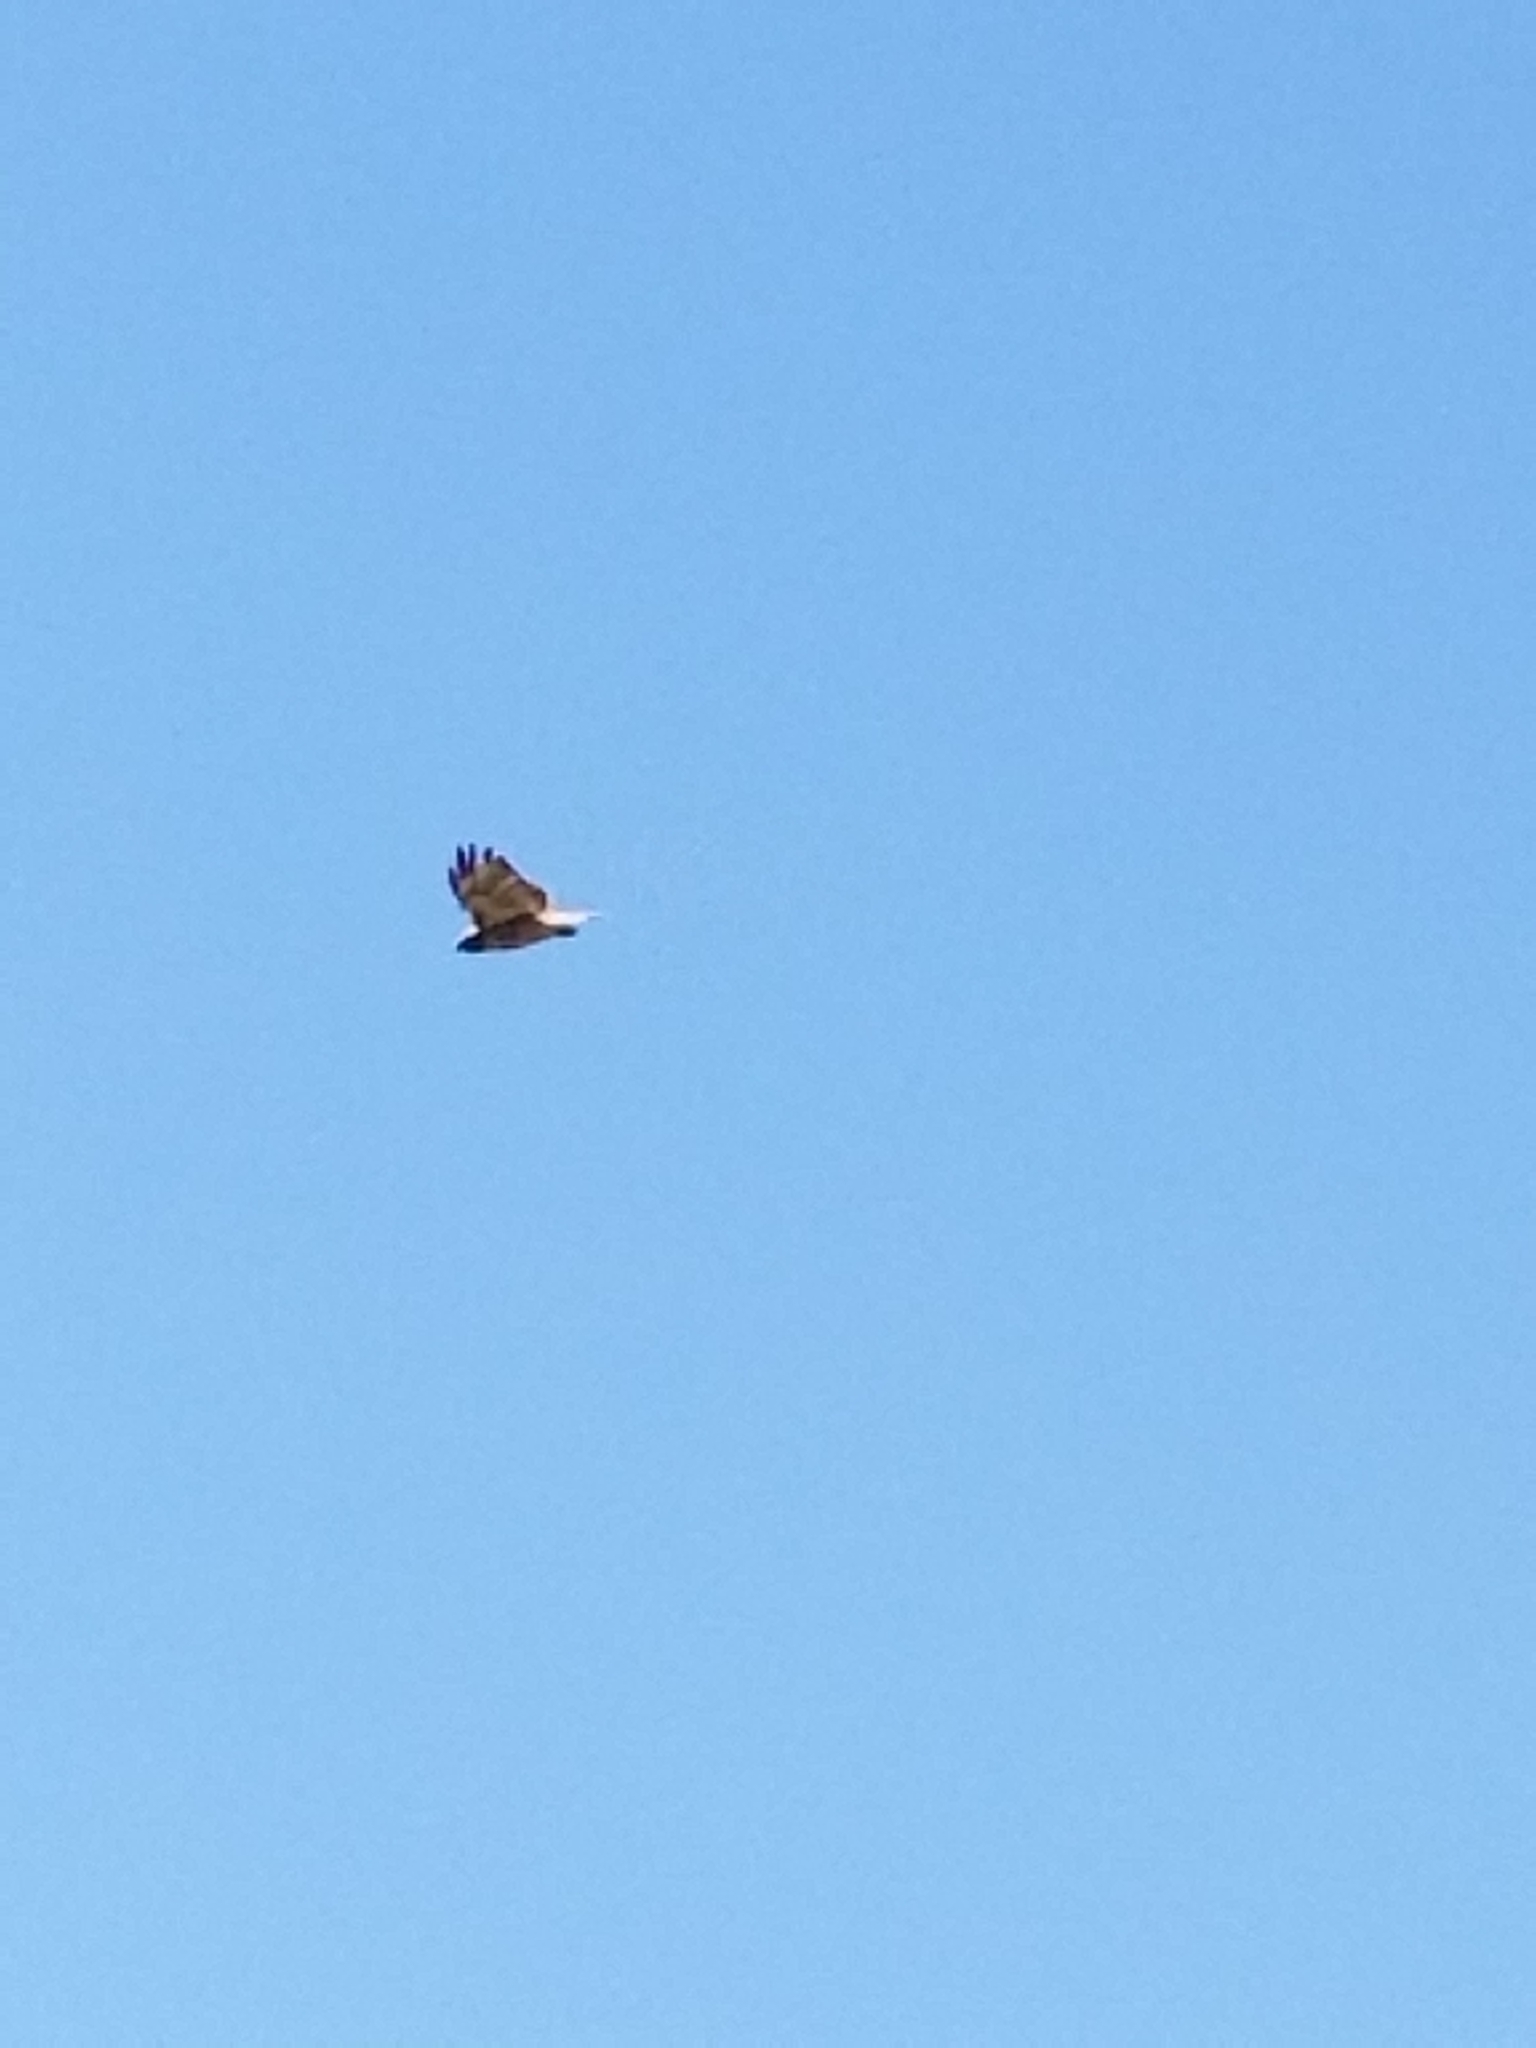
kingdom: Animalia
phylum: Chordata
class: Aves
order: Accipitriformes
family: Accipitridae
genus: Buteo
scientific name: Buteo jamaicensis
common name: Red-tailed hawk
